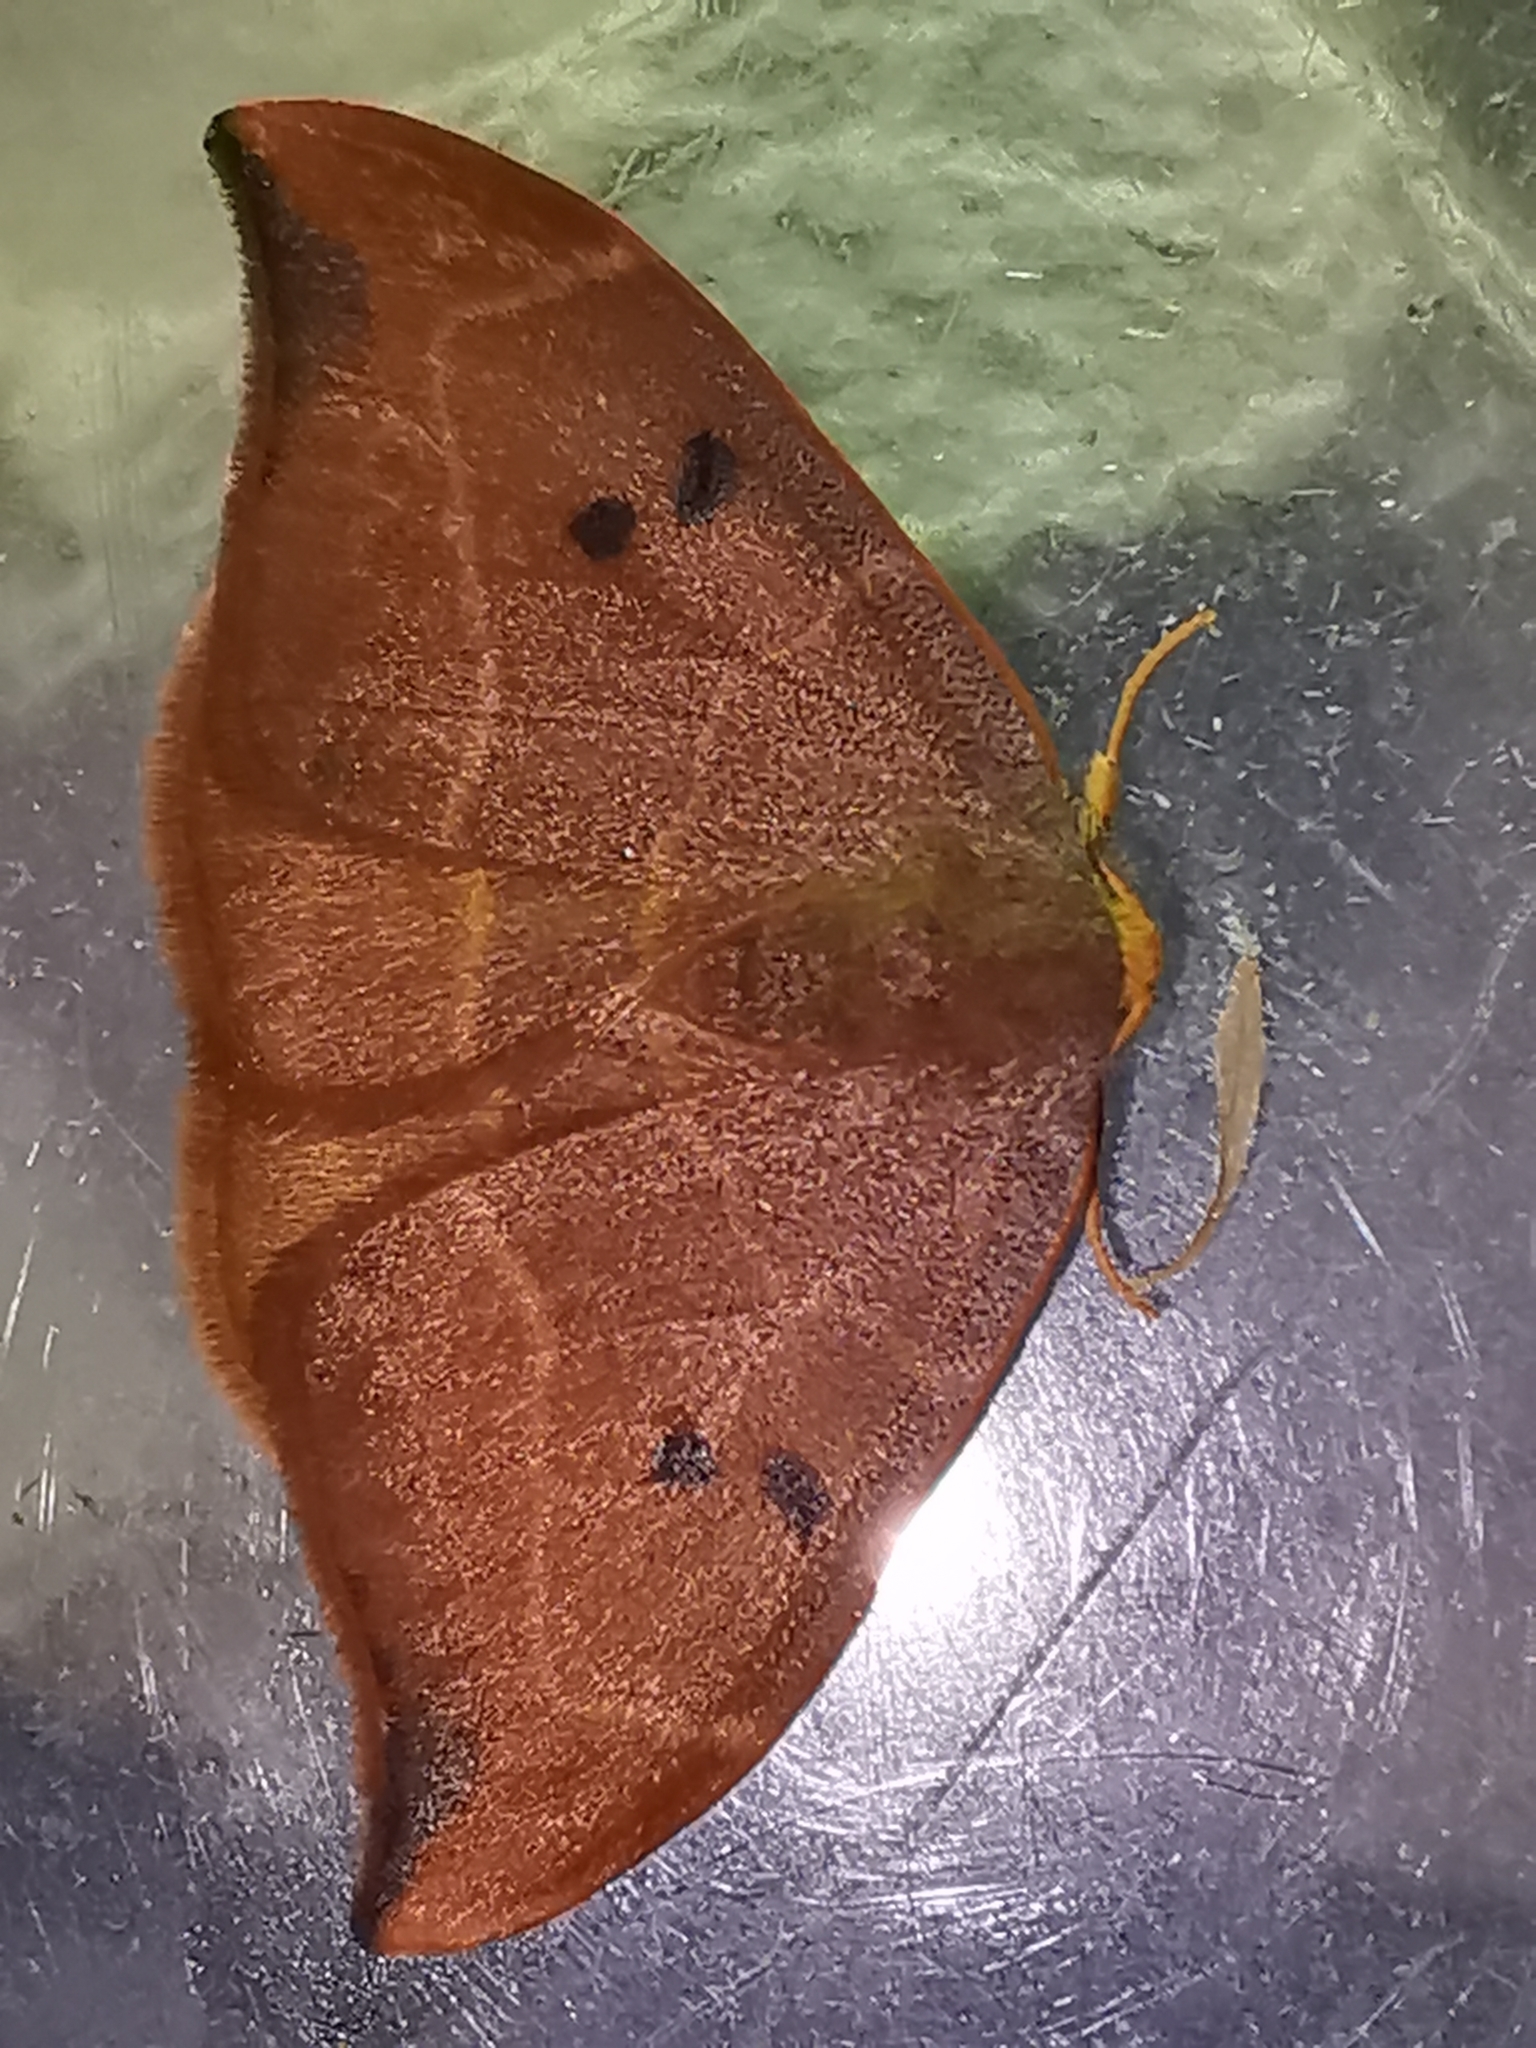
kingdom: Animalia
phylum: Arthropoda
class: Insecta
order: Lepidoptera
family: Drepanidae
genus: Watsonalla
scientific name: Watsonalla binaria
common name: Oak hook-tip
